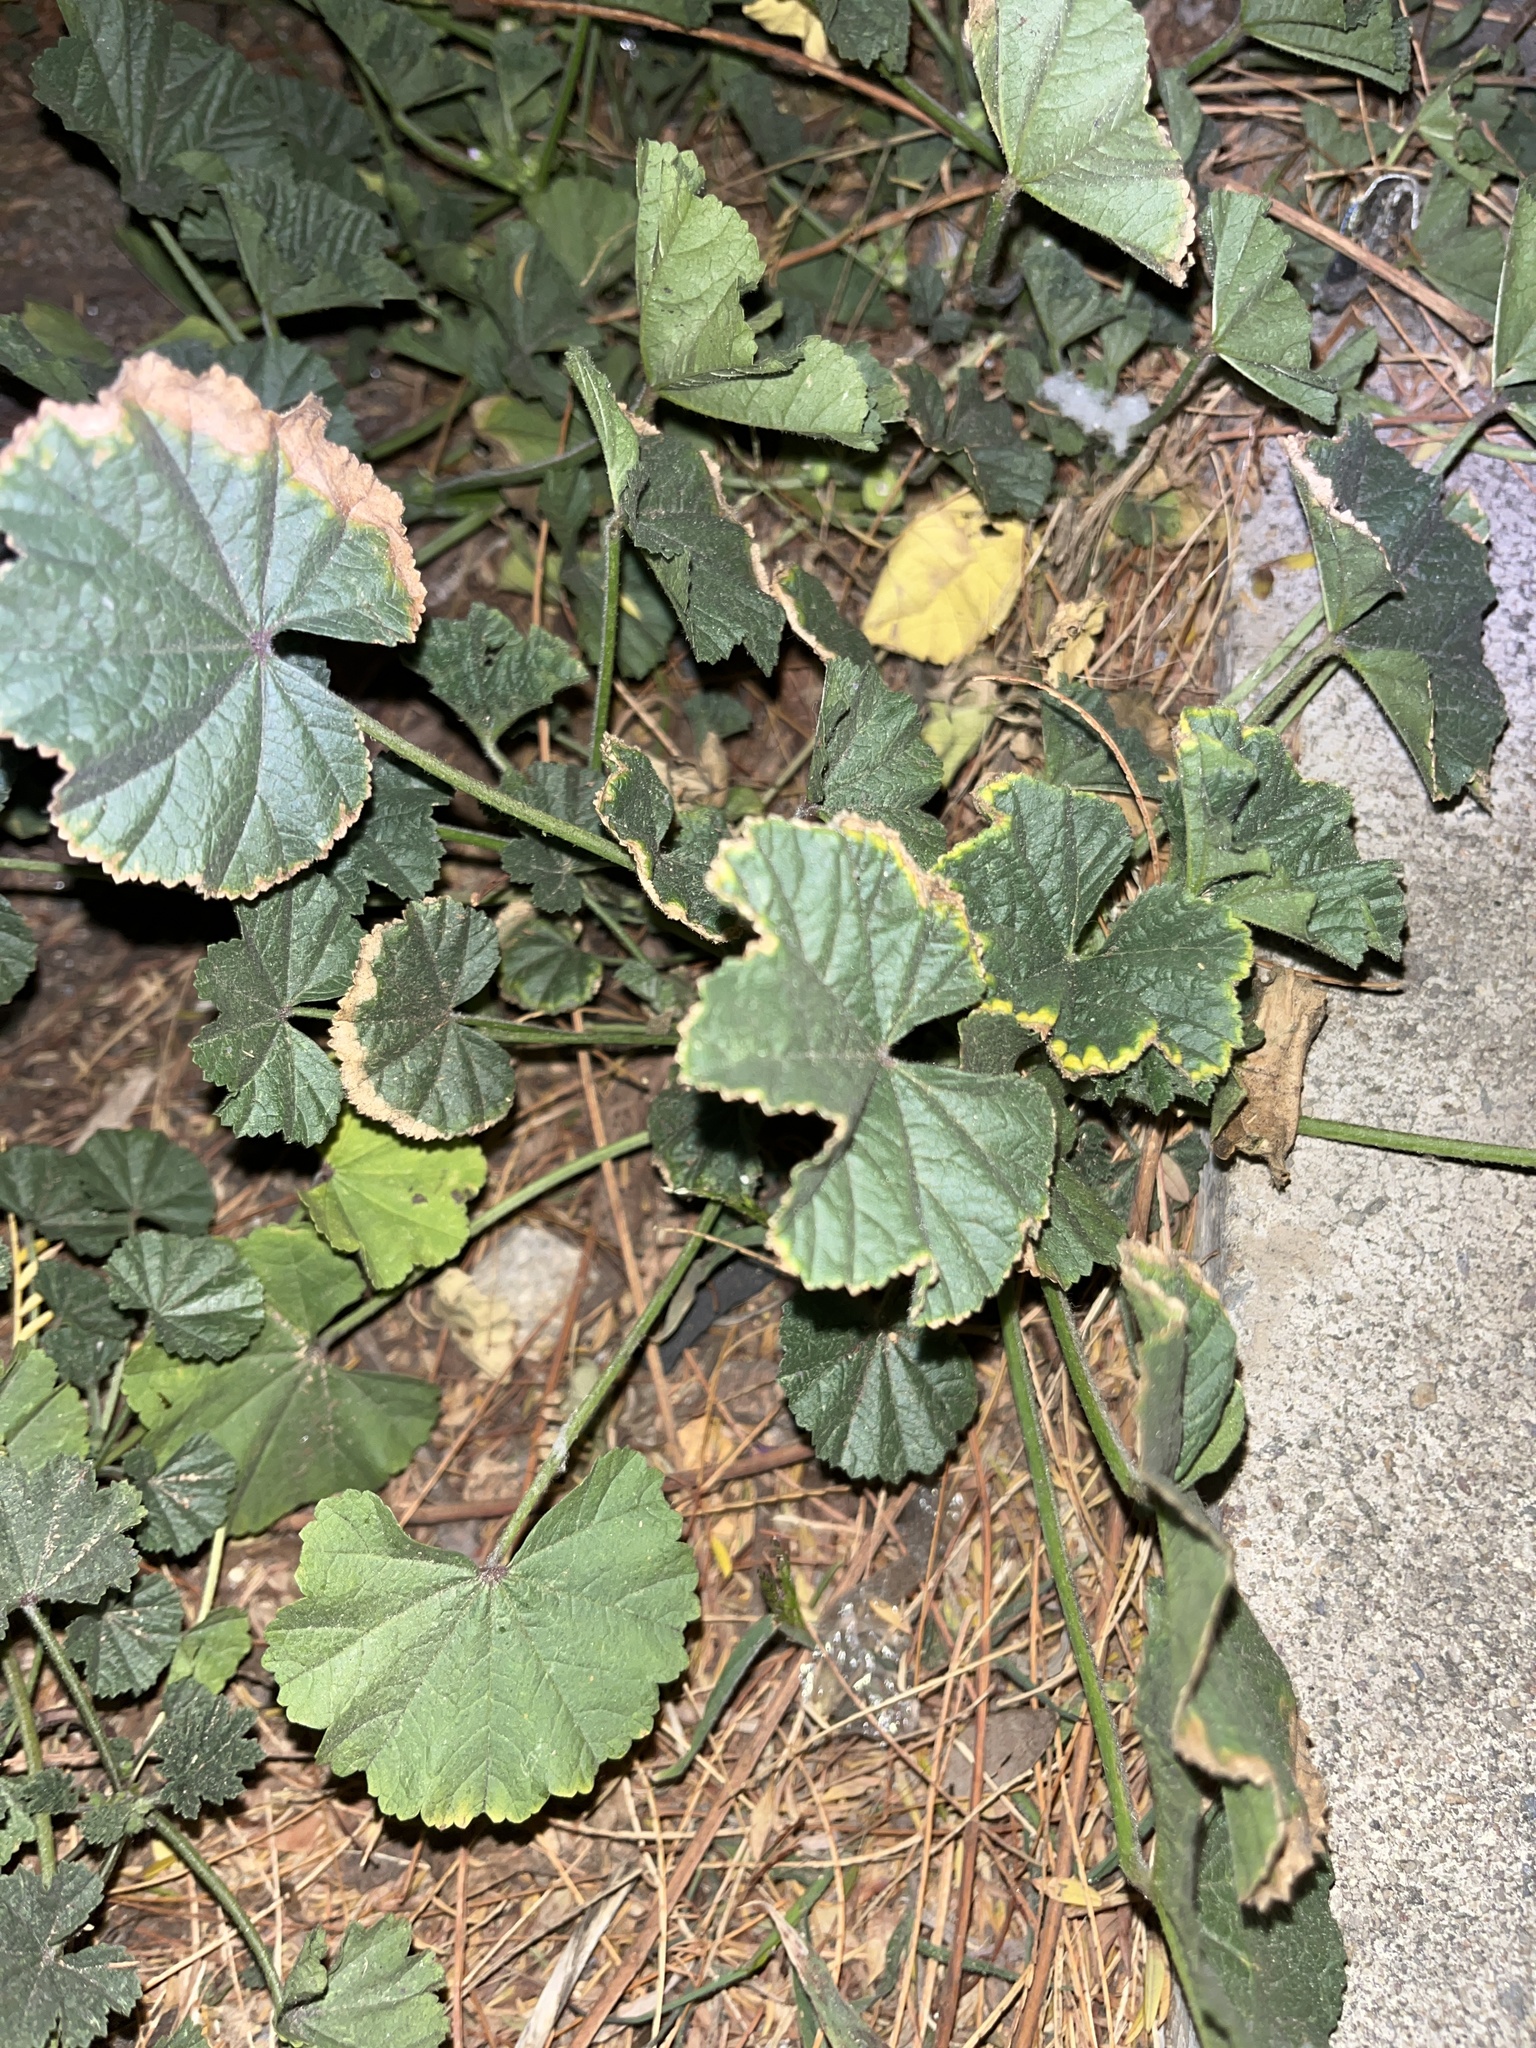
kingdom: Plantae
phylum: Tracheophyta
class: Magnoliopsida
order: Malvales
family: Malvaceae
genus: Malva
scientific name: Malva
